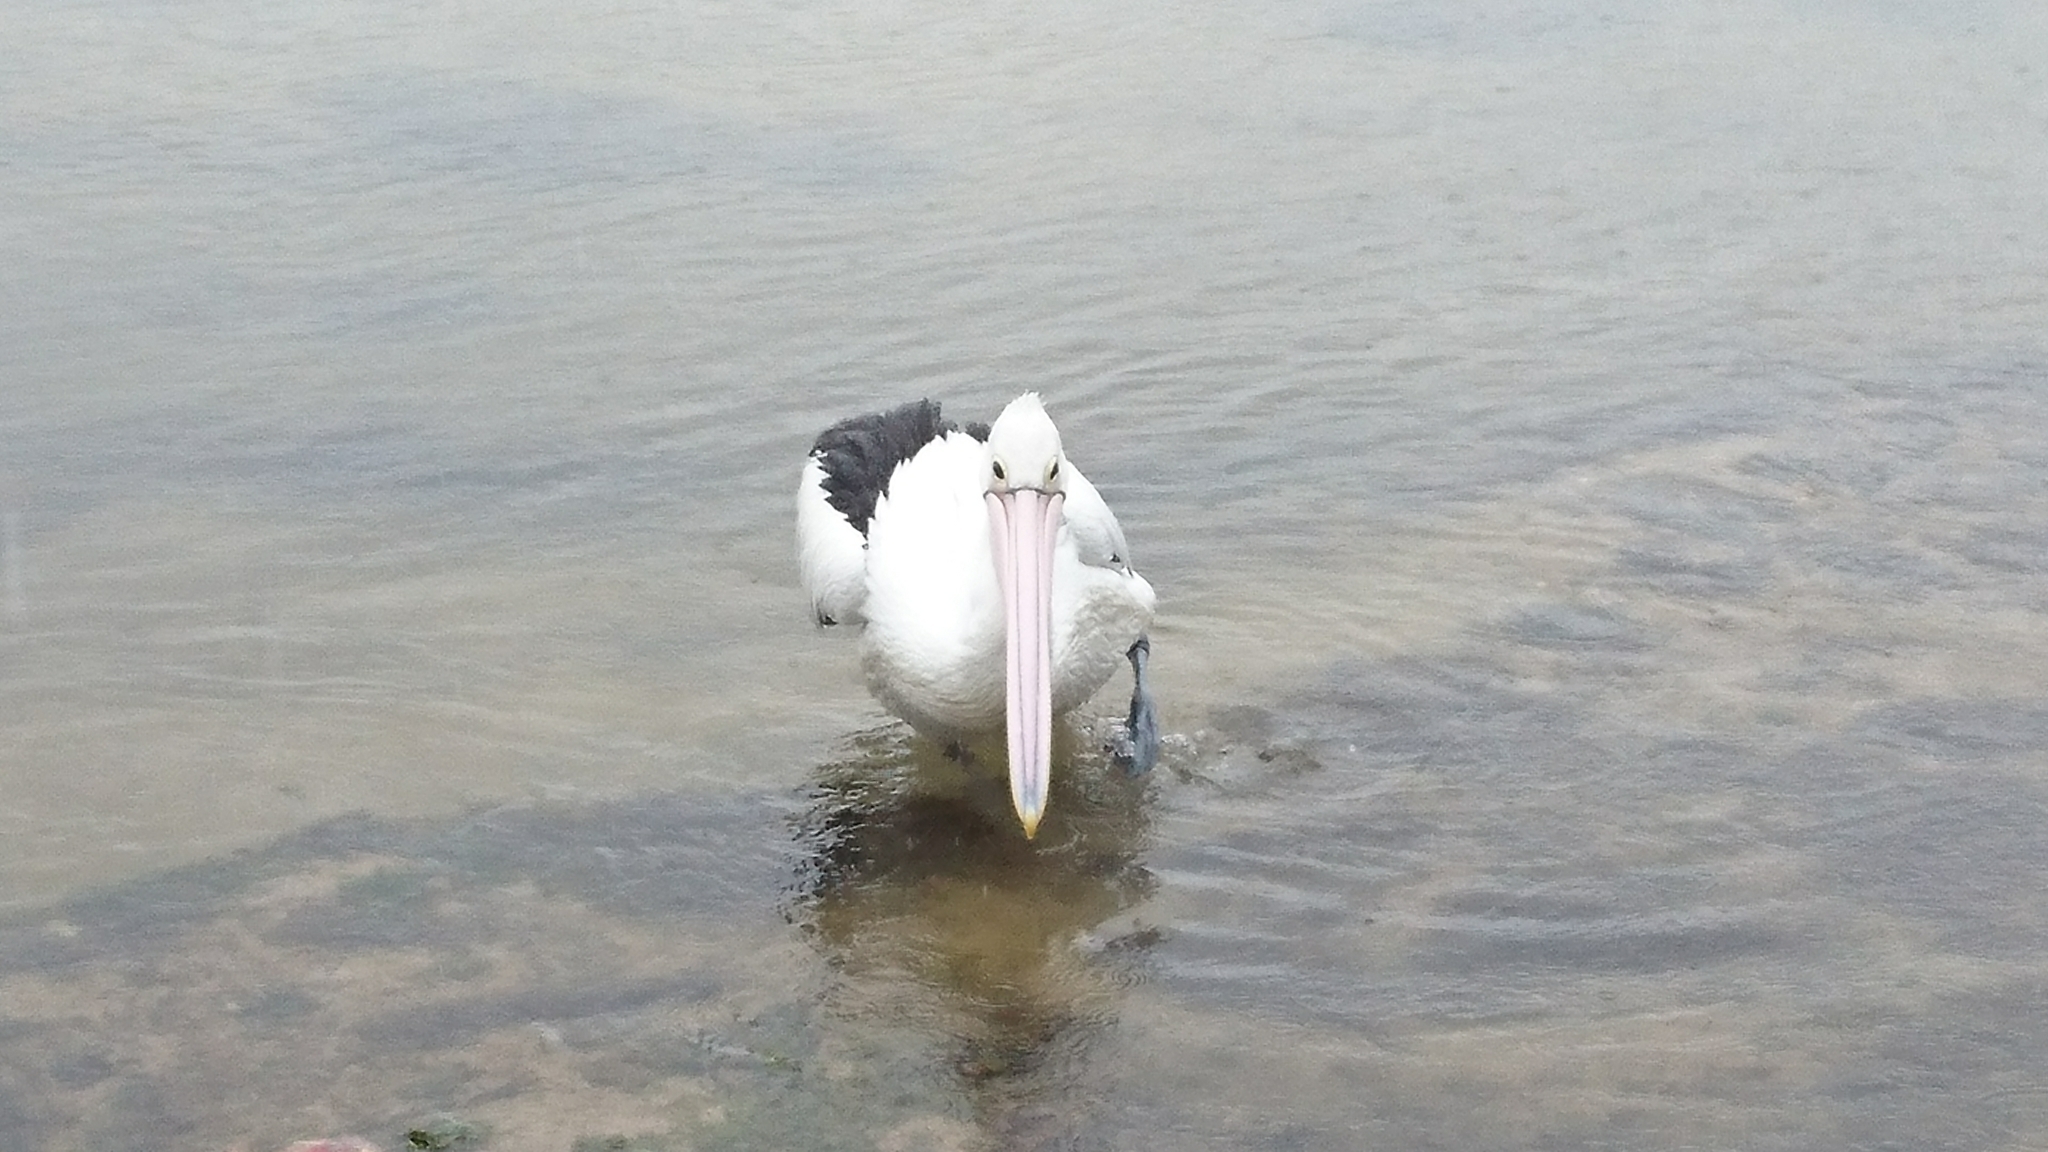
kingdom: Animalia
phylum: Chordata
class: Aves
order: Pelecaniformes
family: Pelecanidae
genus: Pelecanus
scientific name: Pelecanus conspicillatus
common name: Australian pelican
